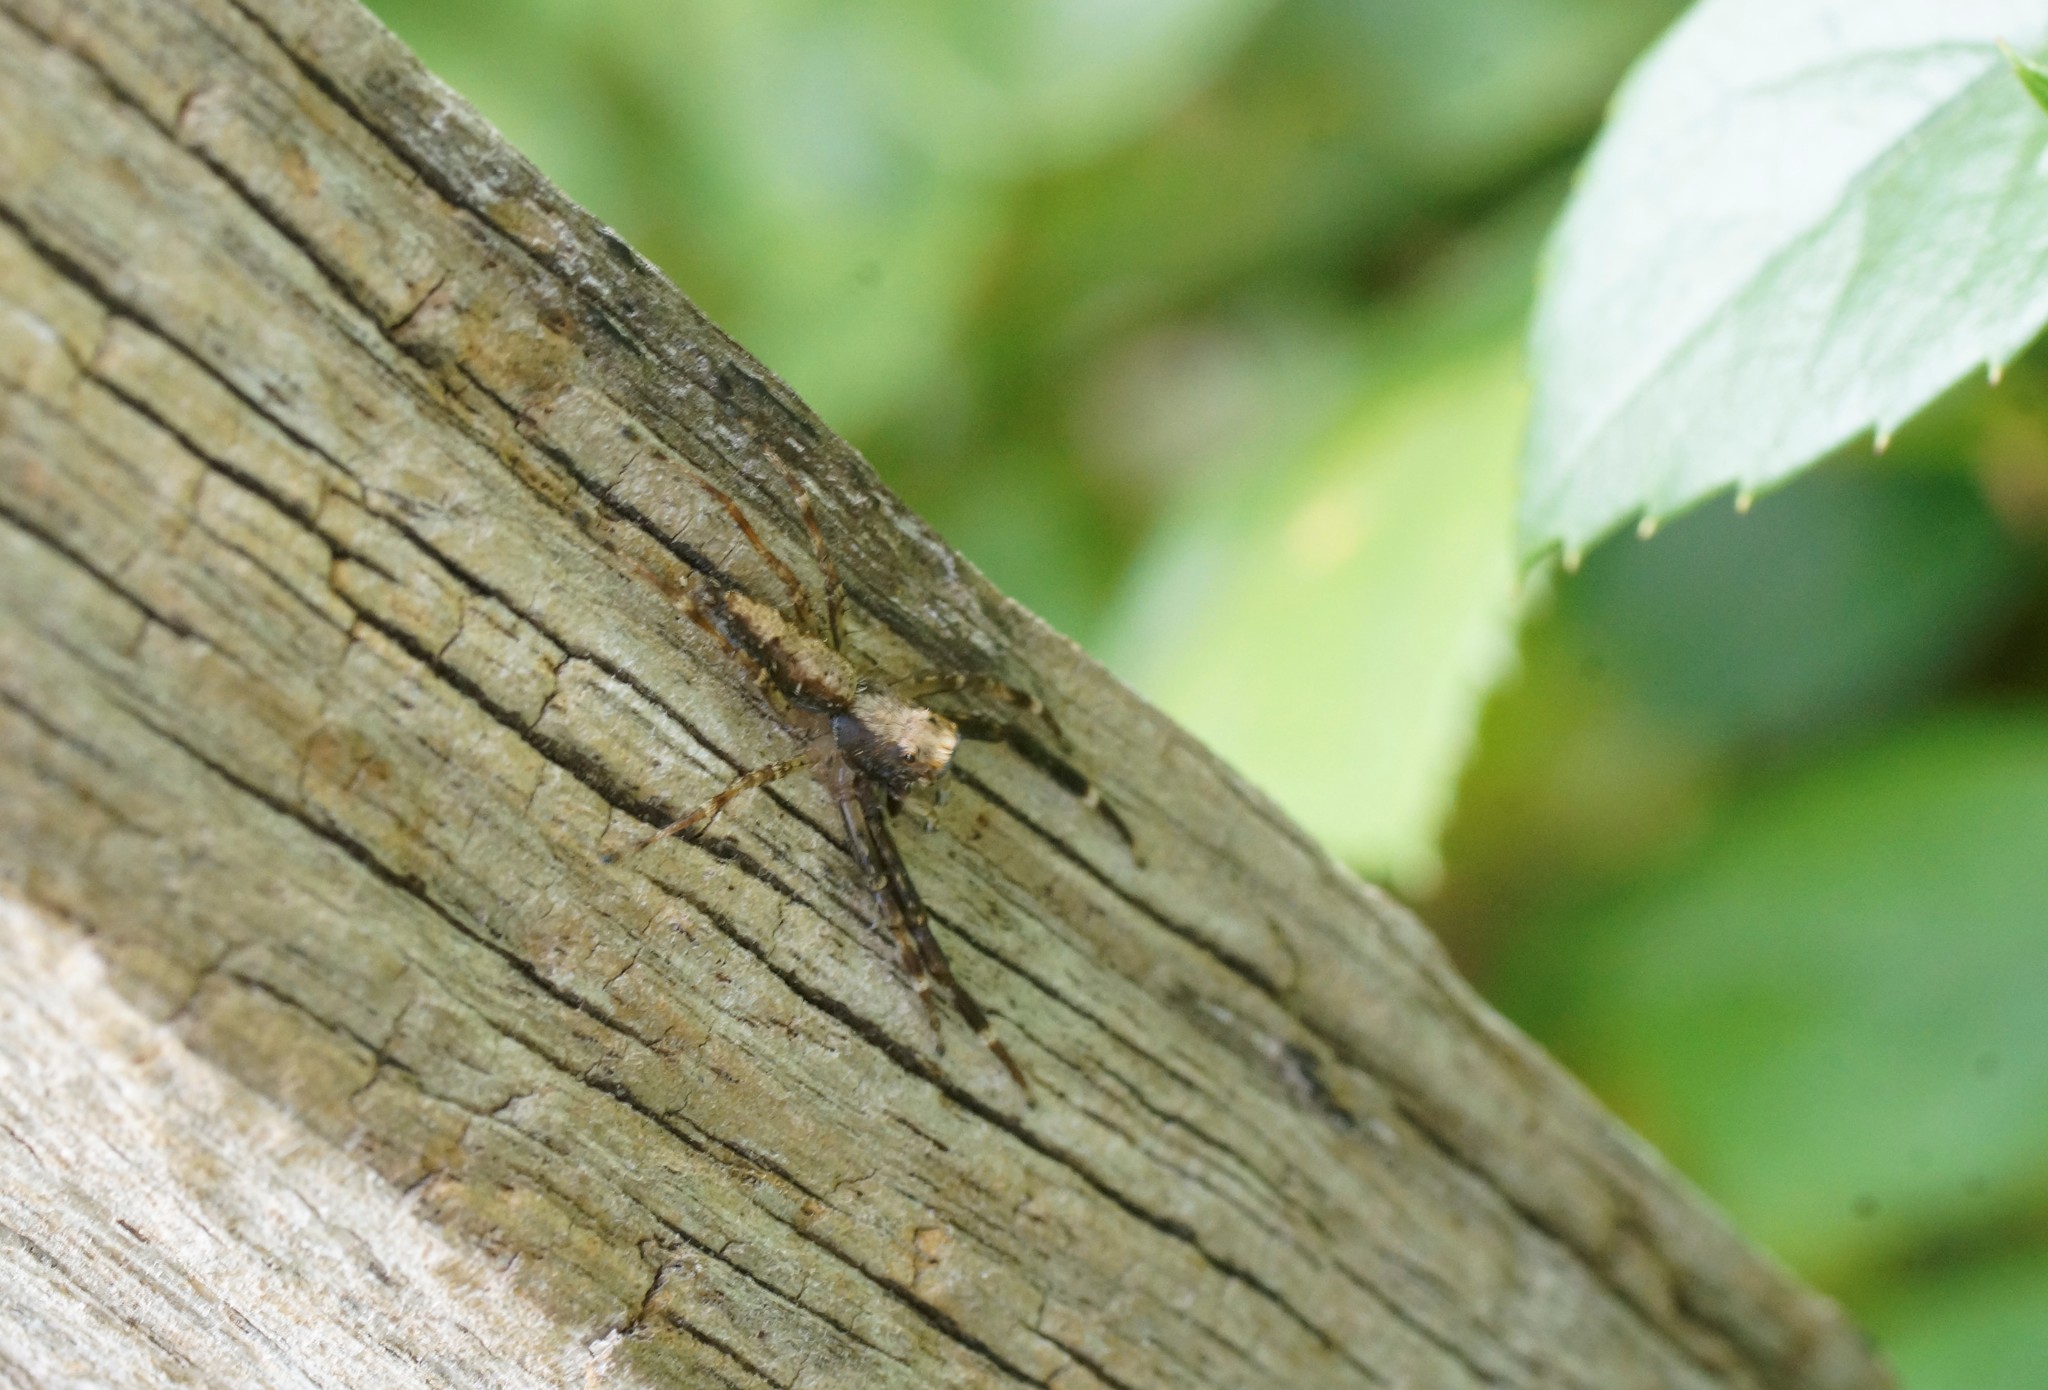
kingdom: Animalia
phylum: Arthropoda
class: Arachnida
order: Araneae
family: Salticidae
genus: Helpis
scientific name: Helpis minitabunda
